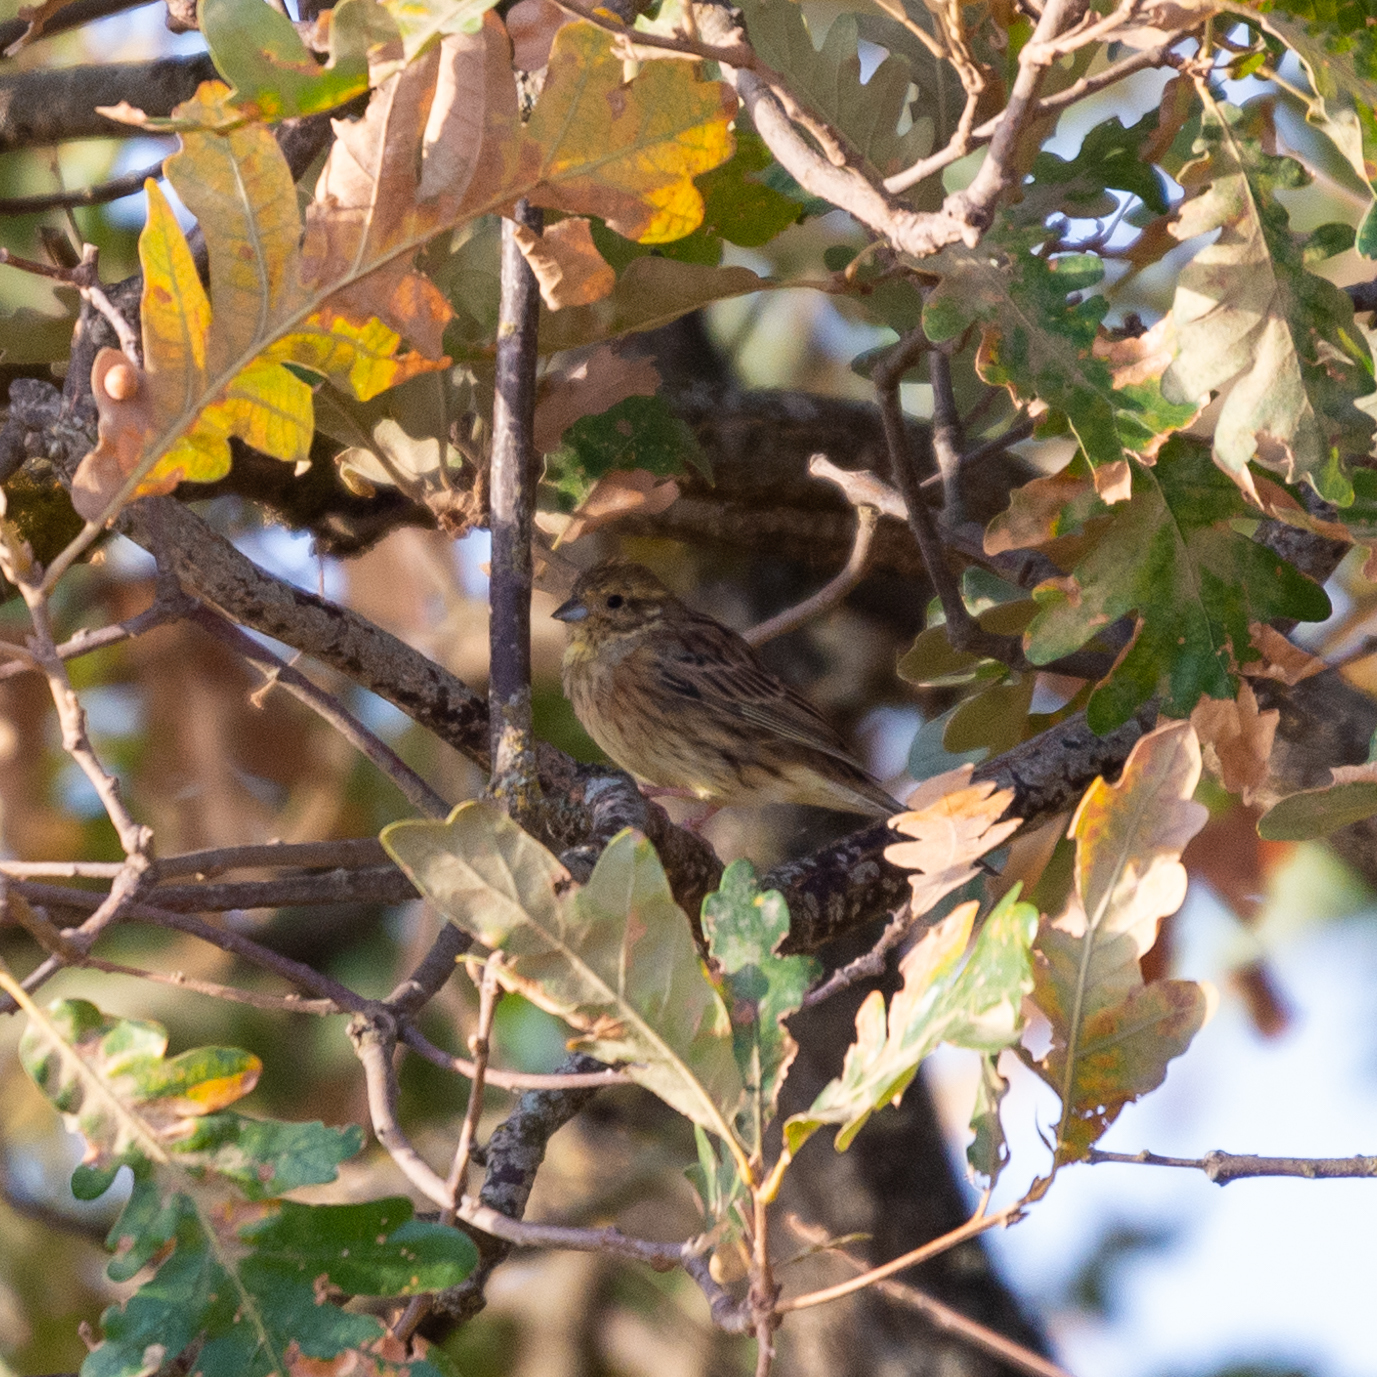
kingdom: Animalia
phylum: Chordata
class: Aves
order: Passeriformes
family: Emberizidae
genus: Emberiza
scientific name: Emberiza cirlus
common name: Cirl bunting
